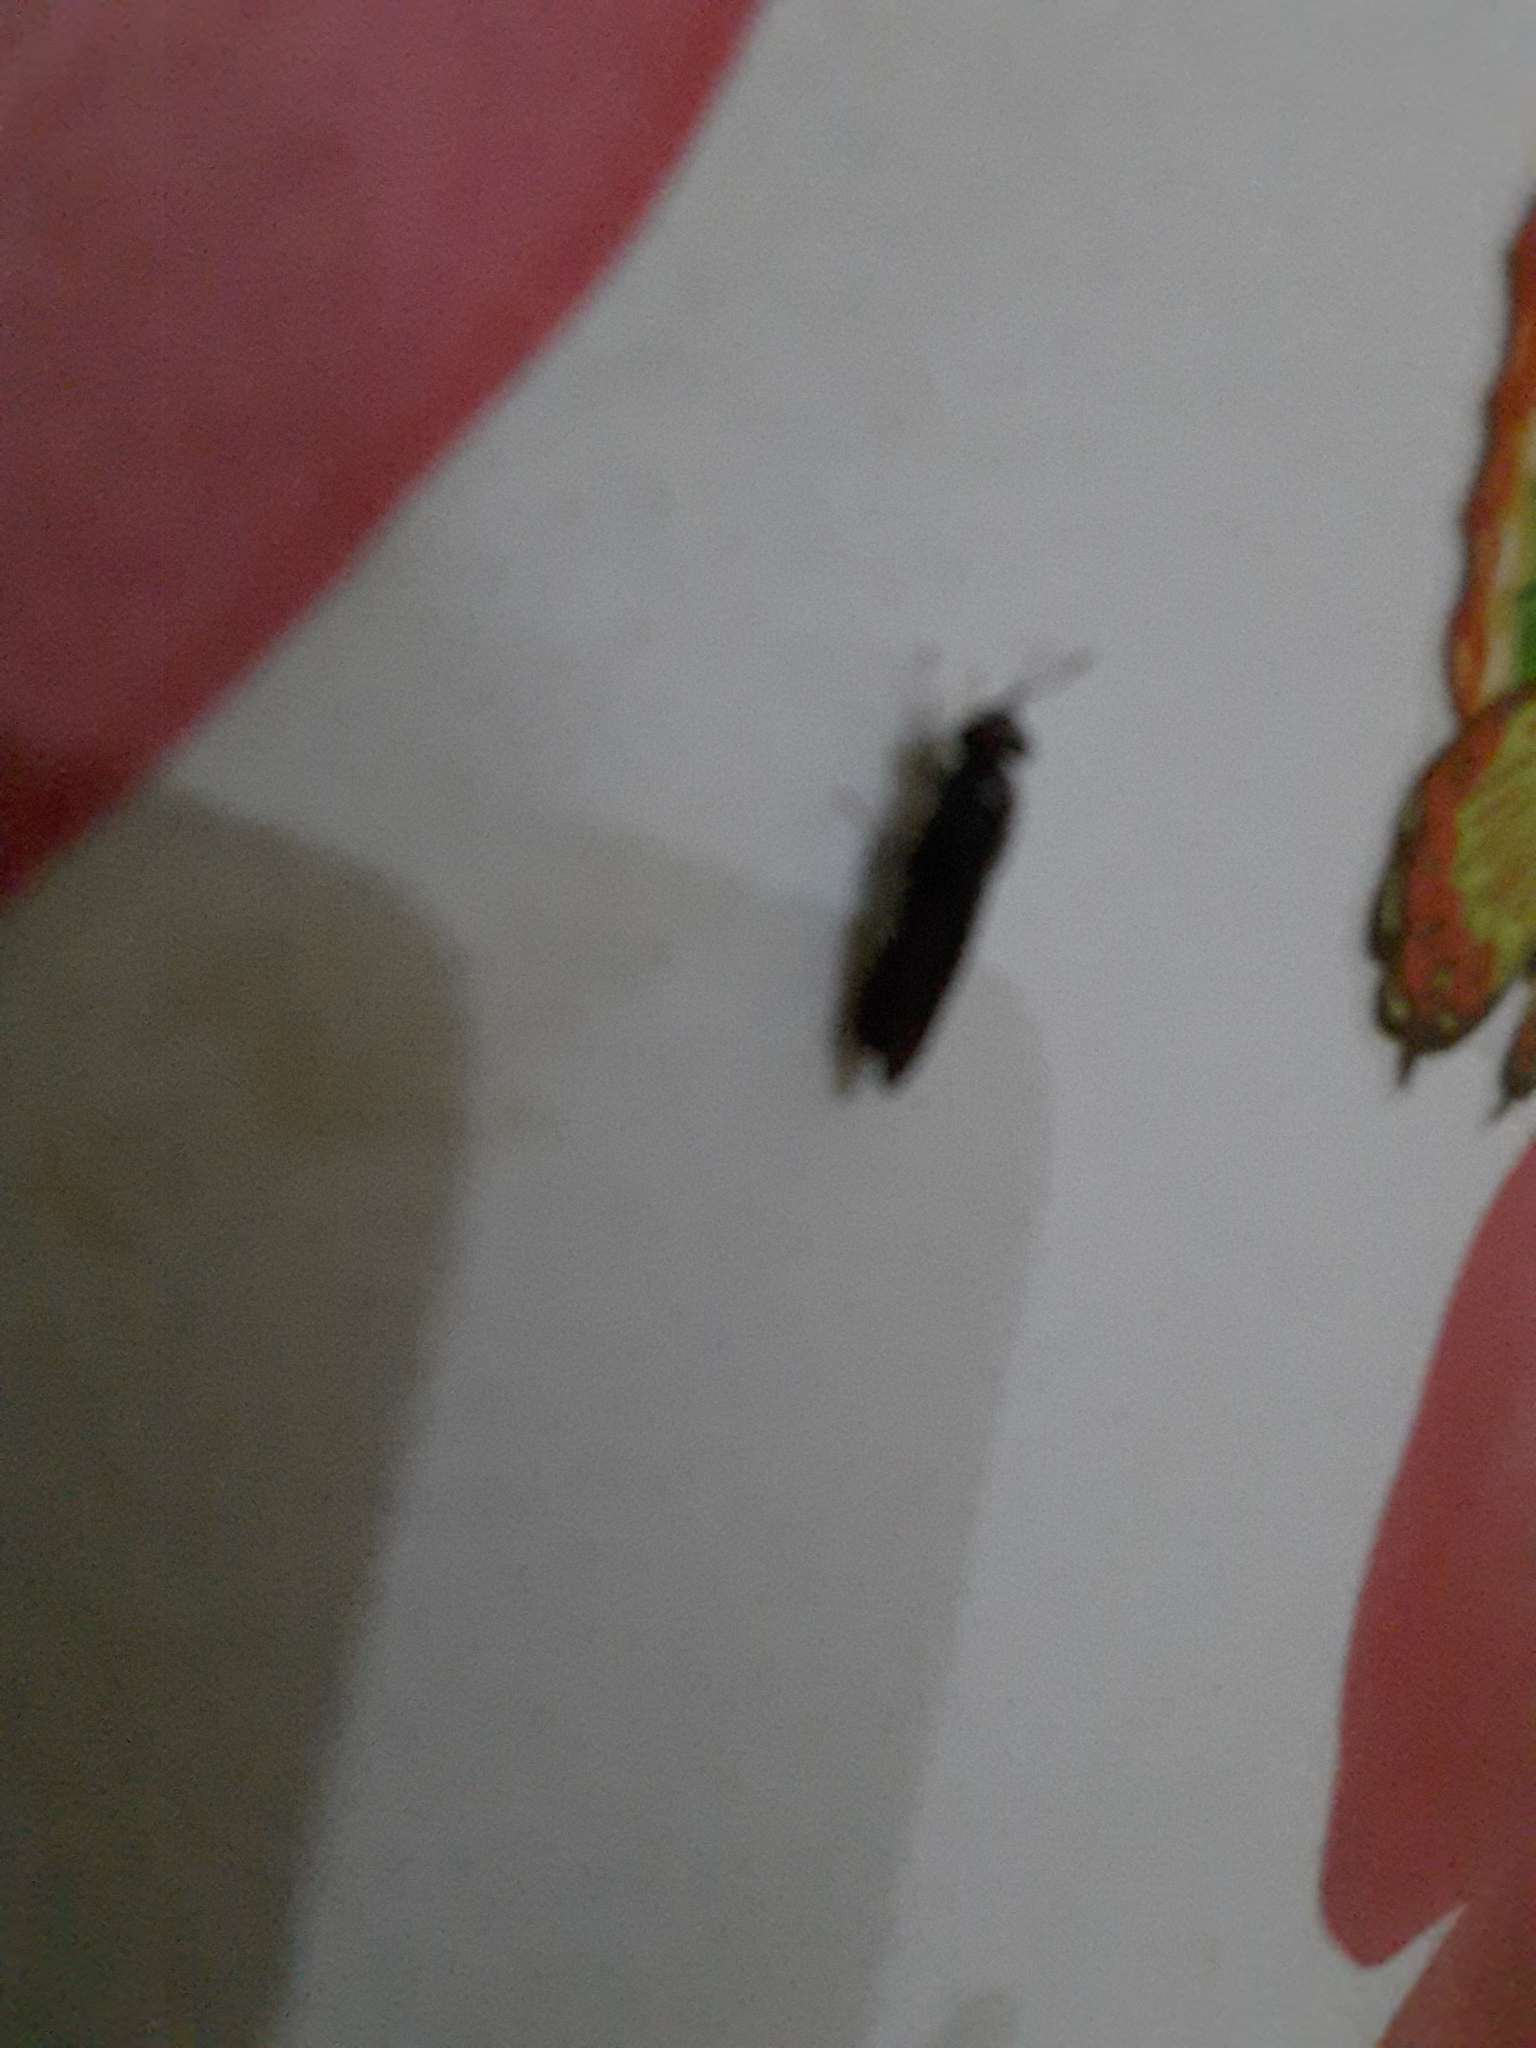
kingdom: Animalia
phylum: Arthropoda
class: Insecta
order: Diptera
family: Stratiomyidae
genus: Hermetia
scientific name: Hermetia illucens
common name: Black soldier fly
